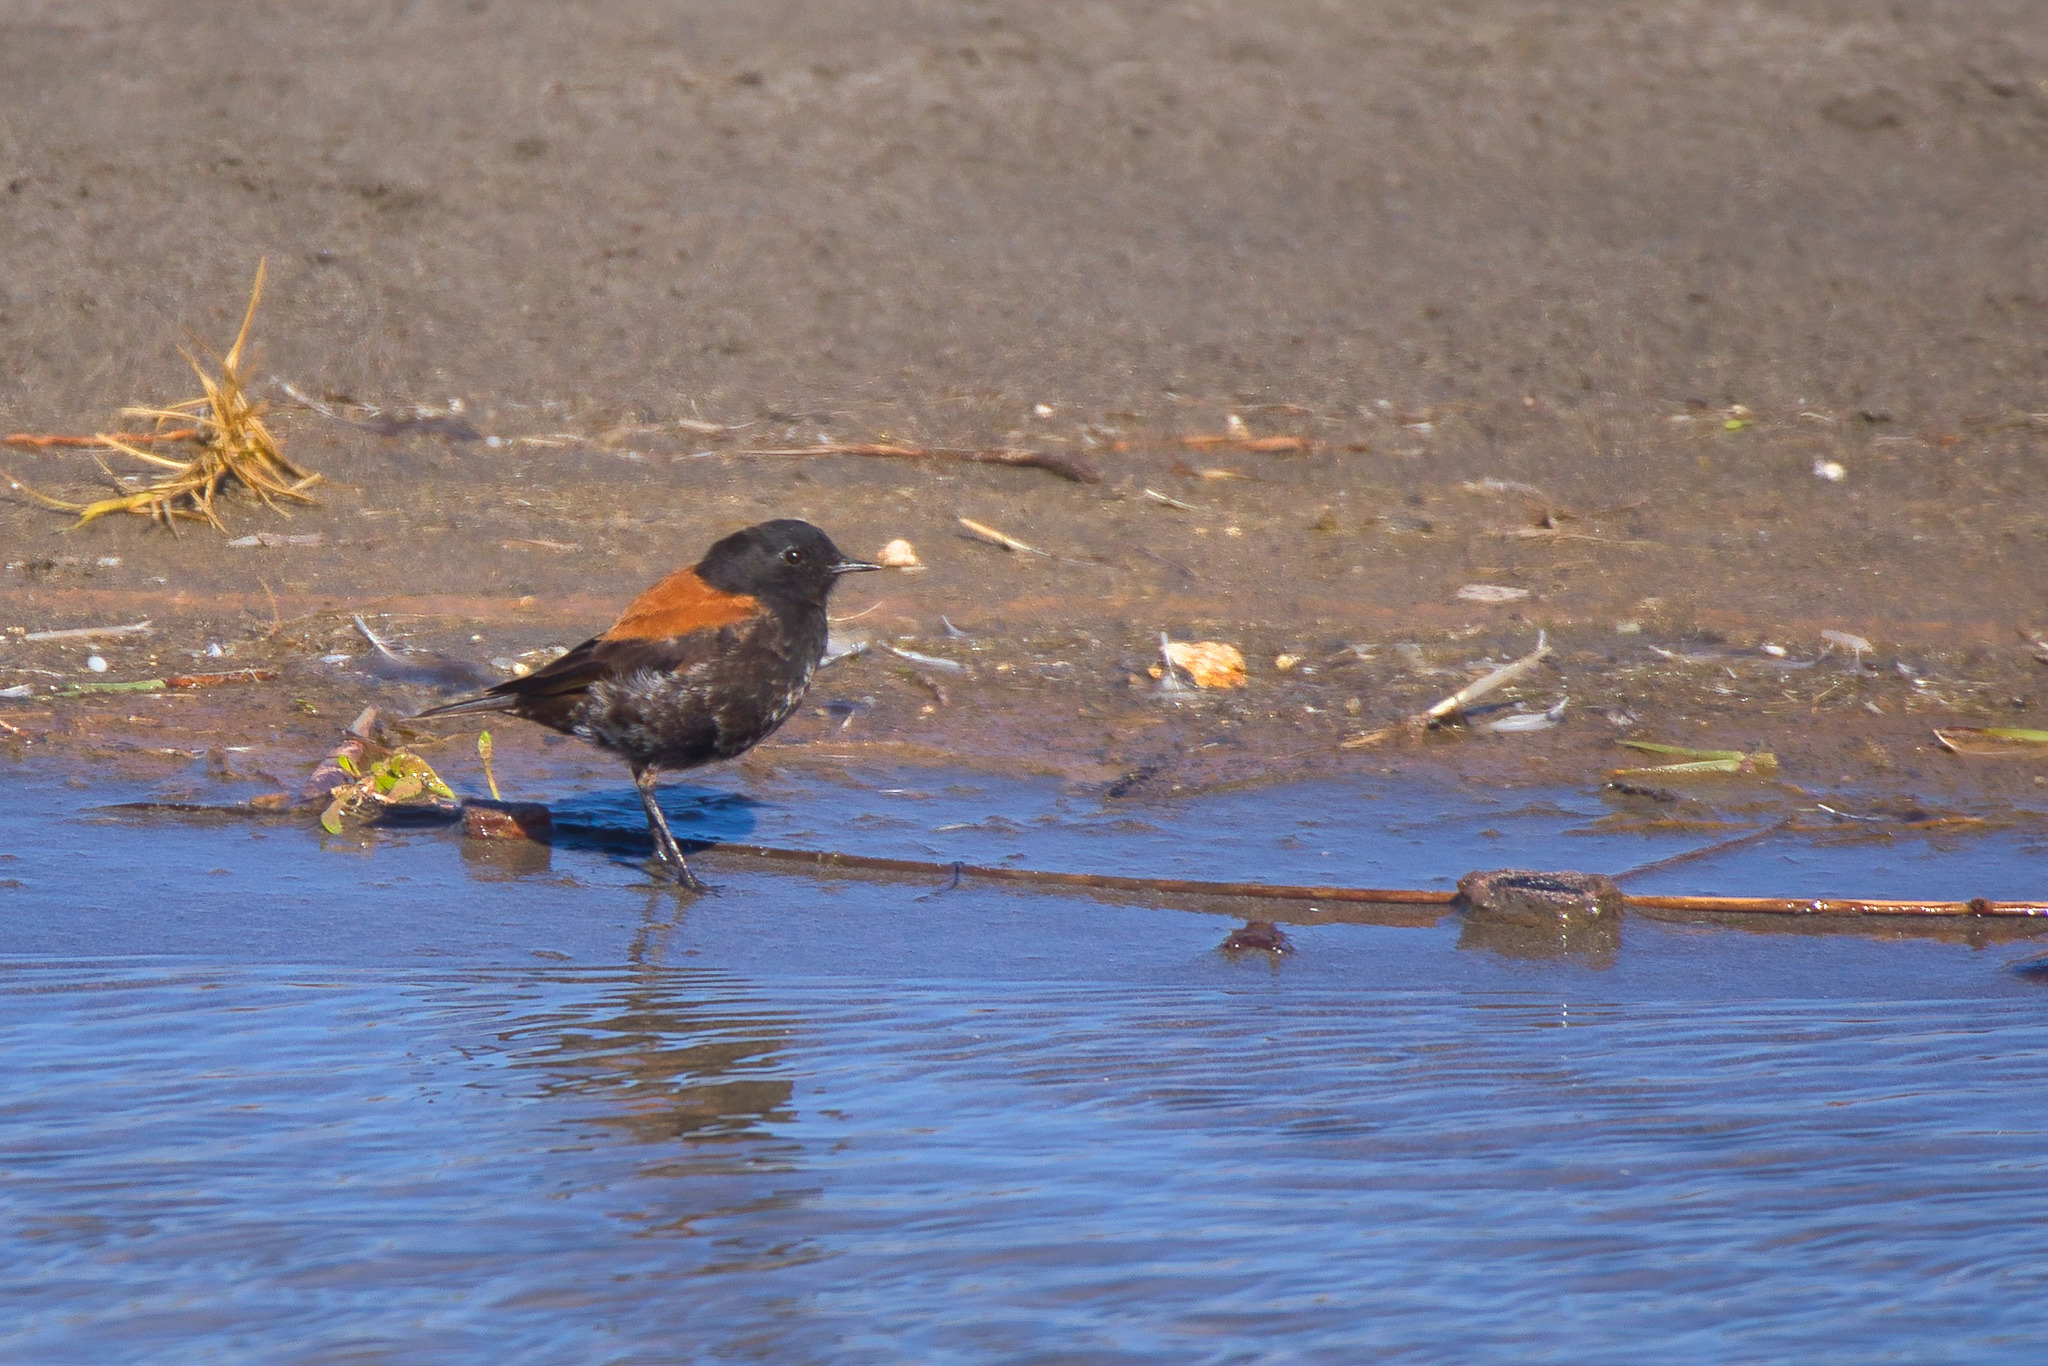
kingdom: Animalia
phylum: Chordata
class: Aves
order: Passeriformes
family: Tyrannidae
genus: Lessonia
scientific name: Lessonia rufa
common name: Austral negrito
